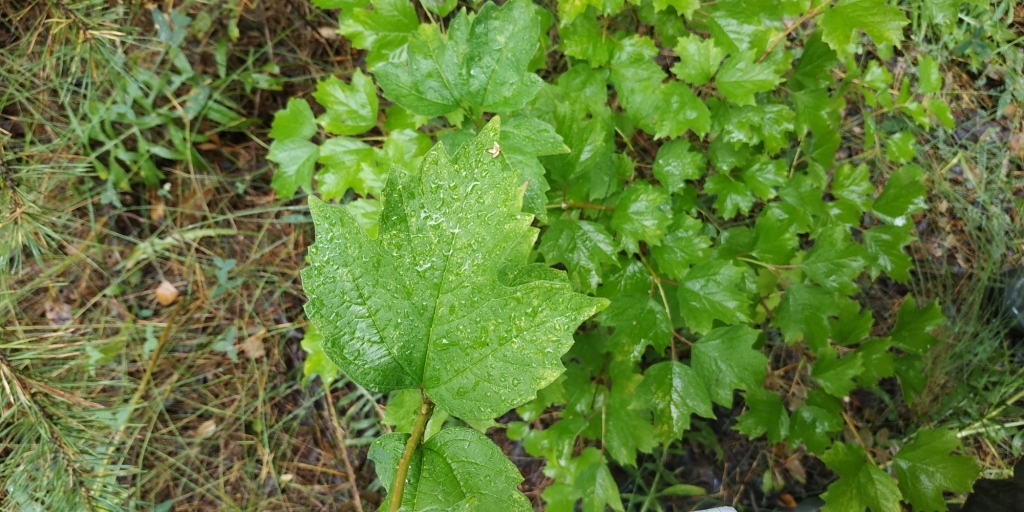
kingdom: Plantae
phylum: Tracheophyta
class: Magnoliopsida
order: Dipsacales
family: Viburnaceae
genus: Viburnum
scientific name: Viburnum opulus
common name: Guelder-rose
